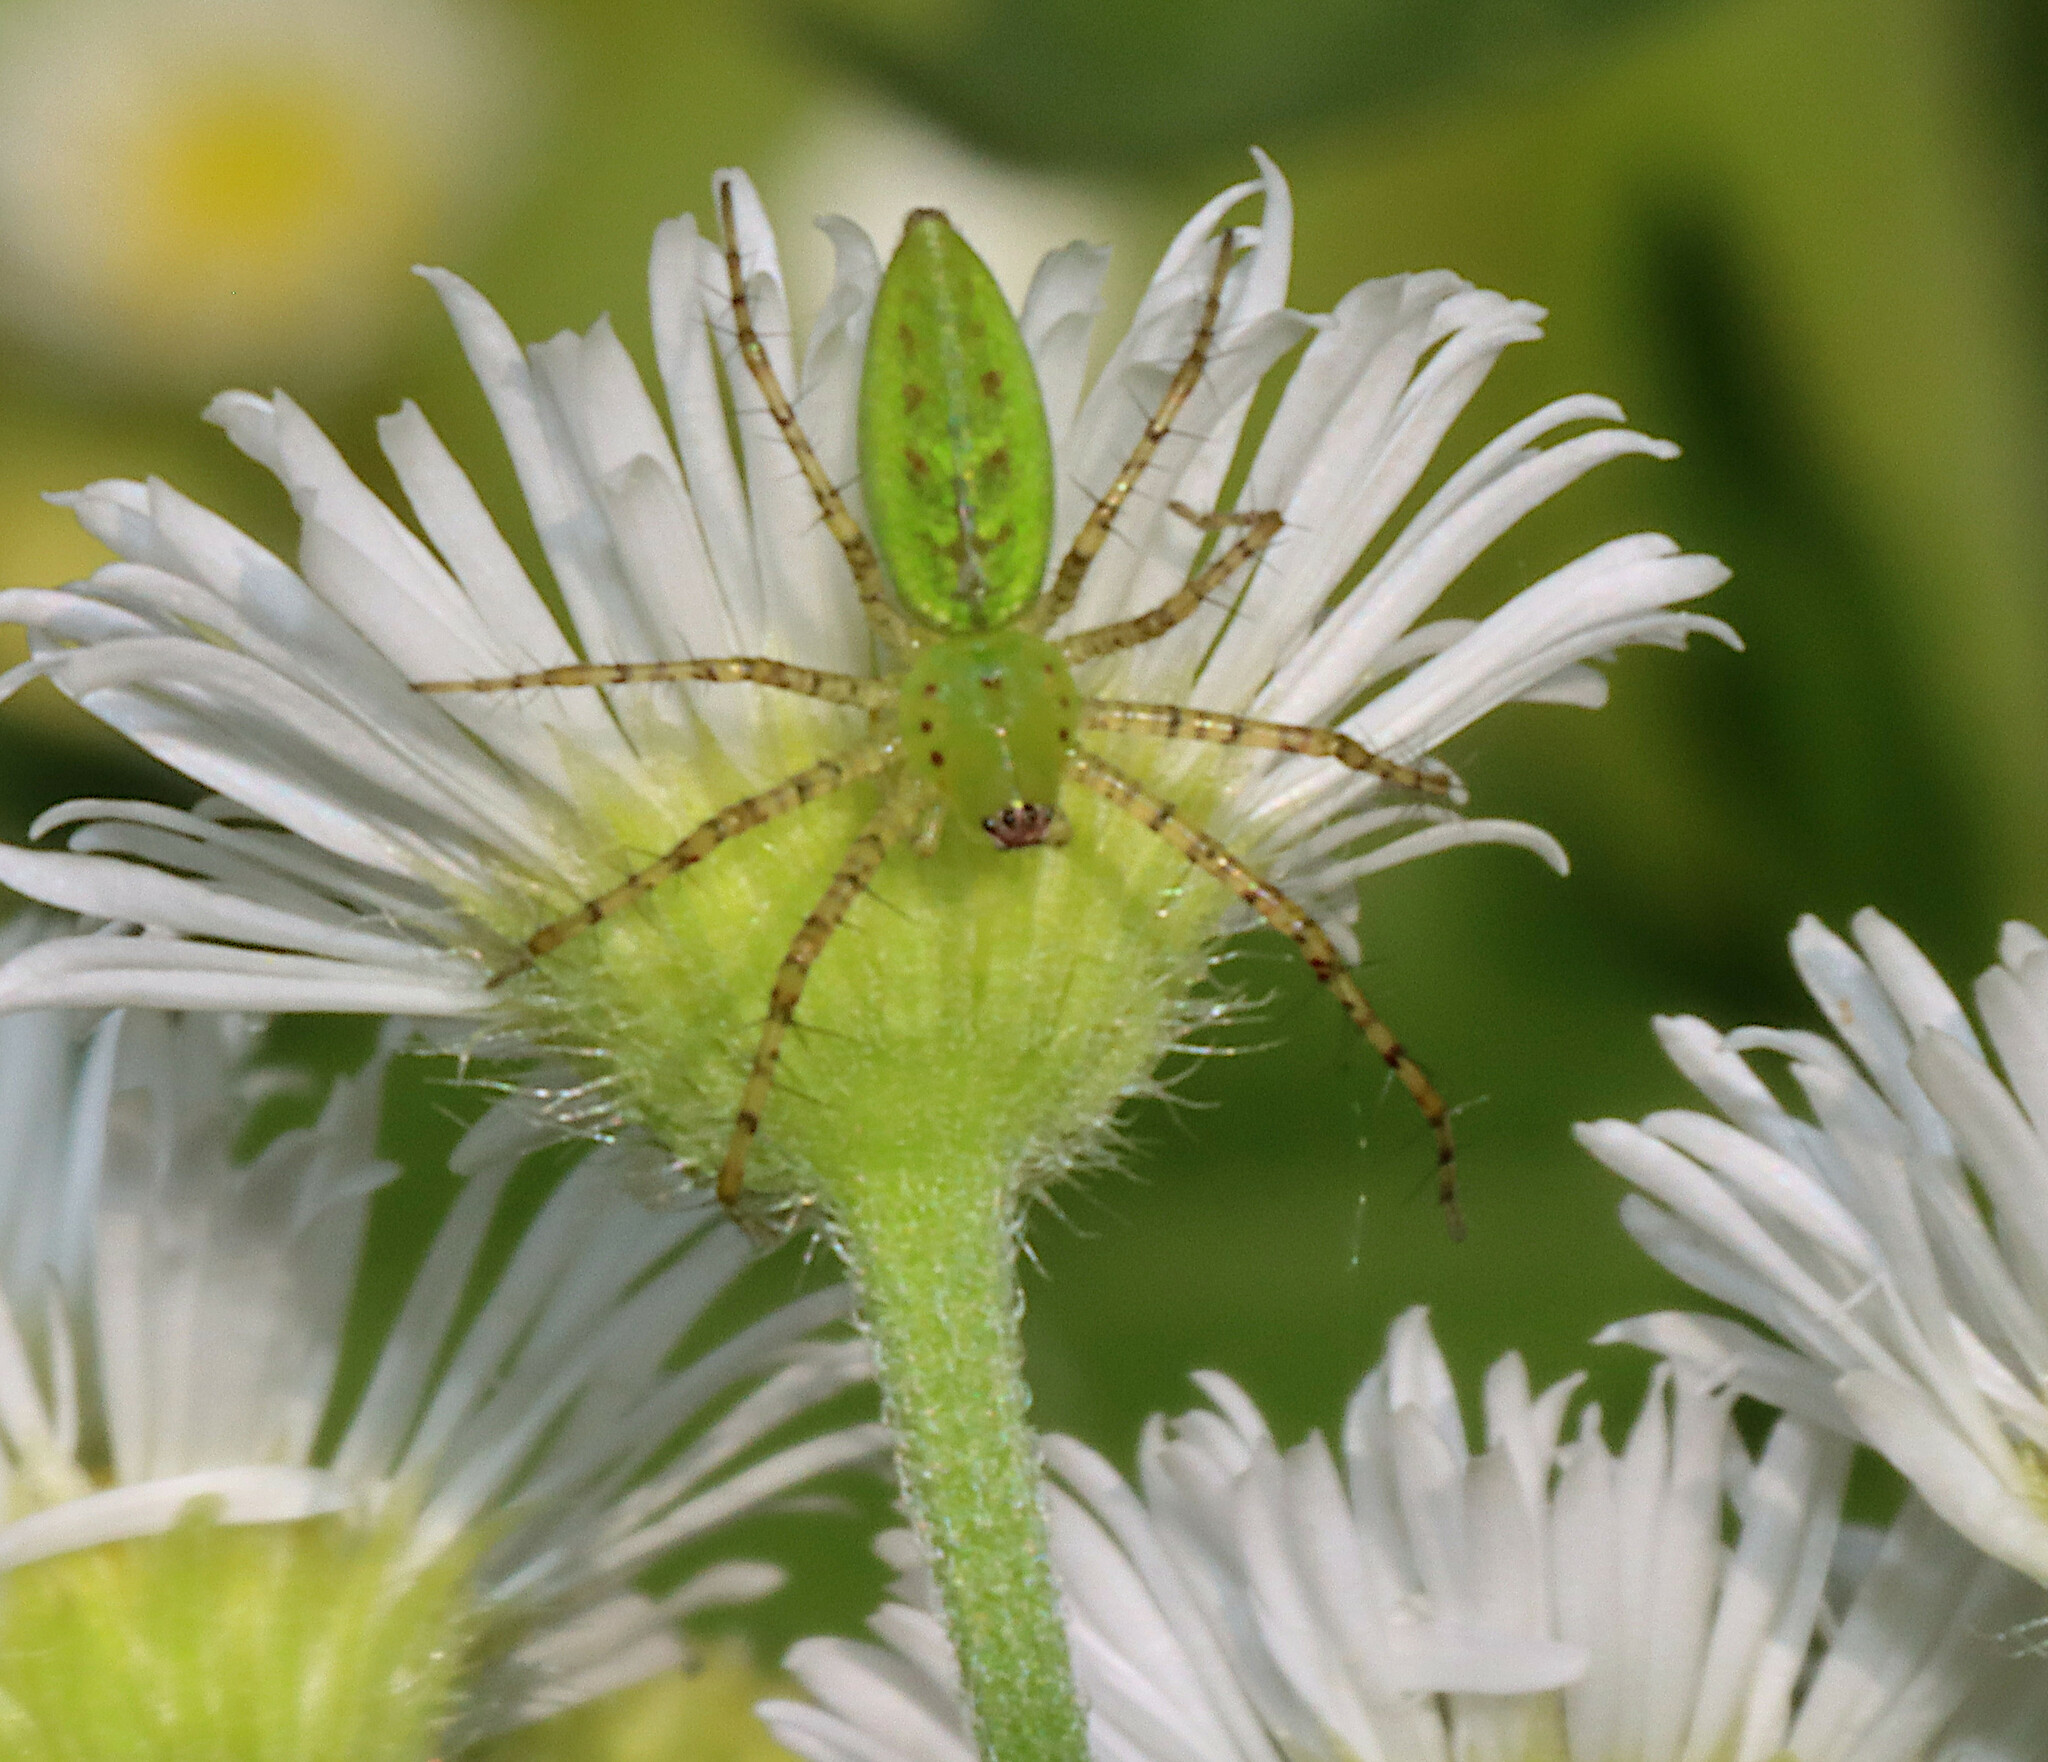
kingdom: Animalia
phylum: Arthropoda
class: Arachnida
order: Araneae
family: Oxyopidae
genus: Peucetia
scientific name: Peucetia viridans
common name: Lynx spiders
